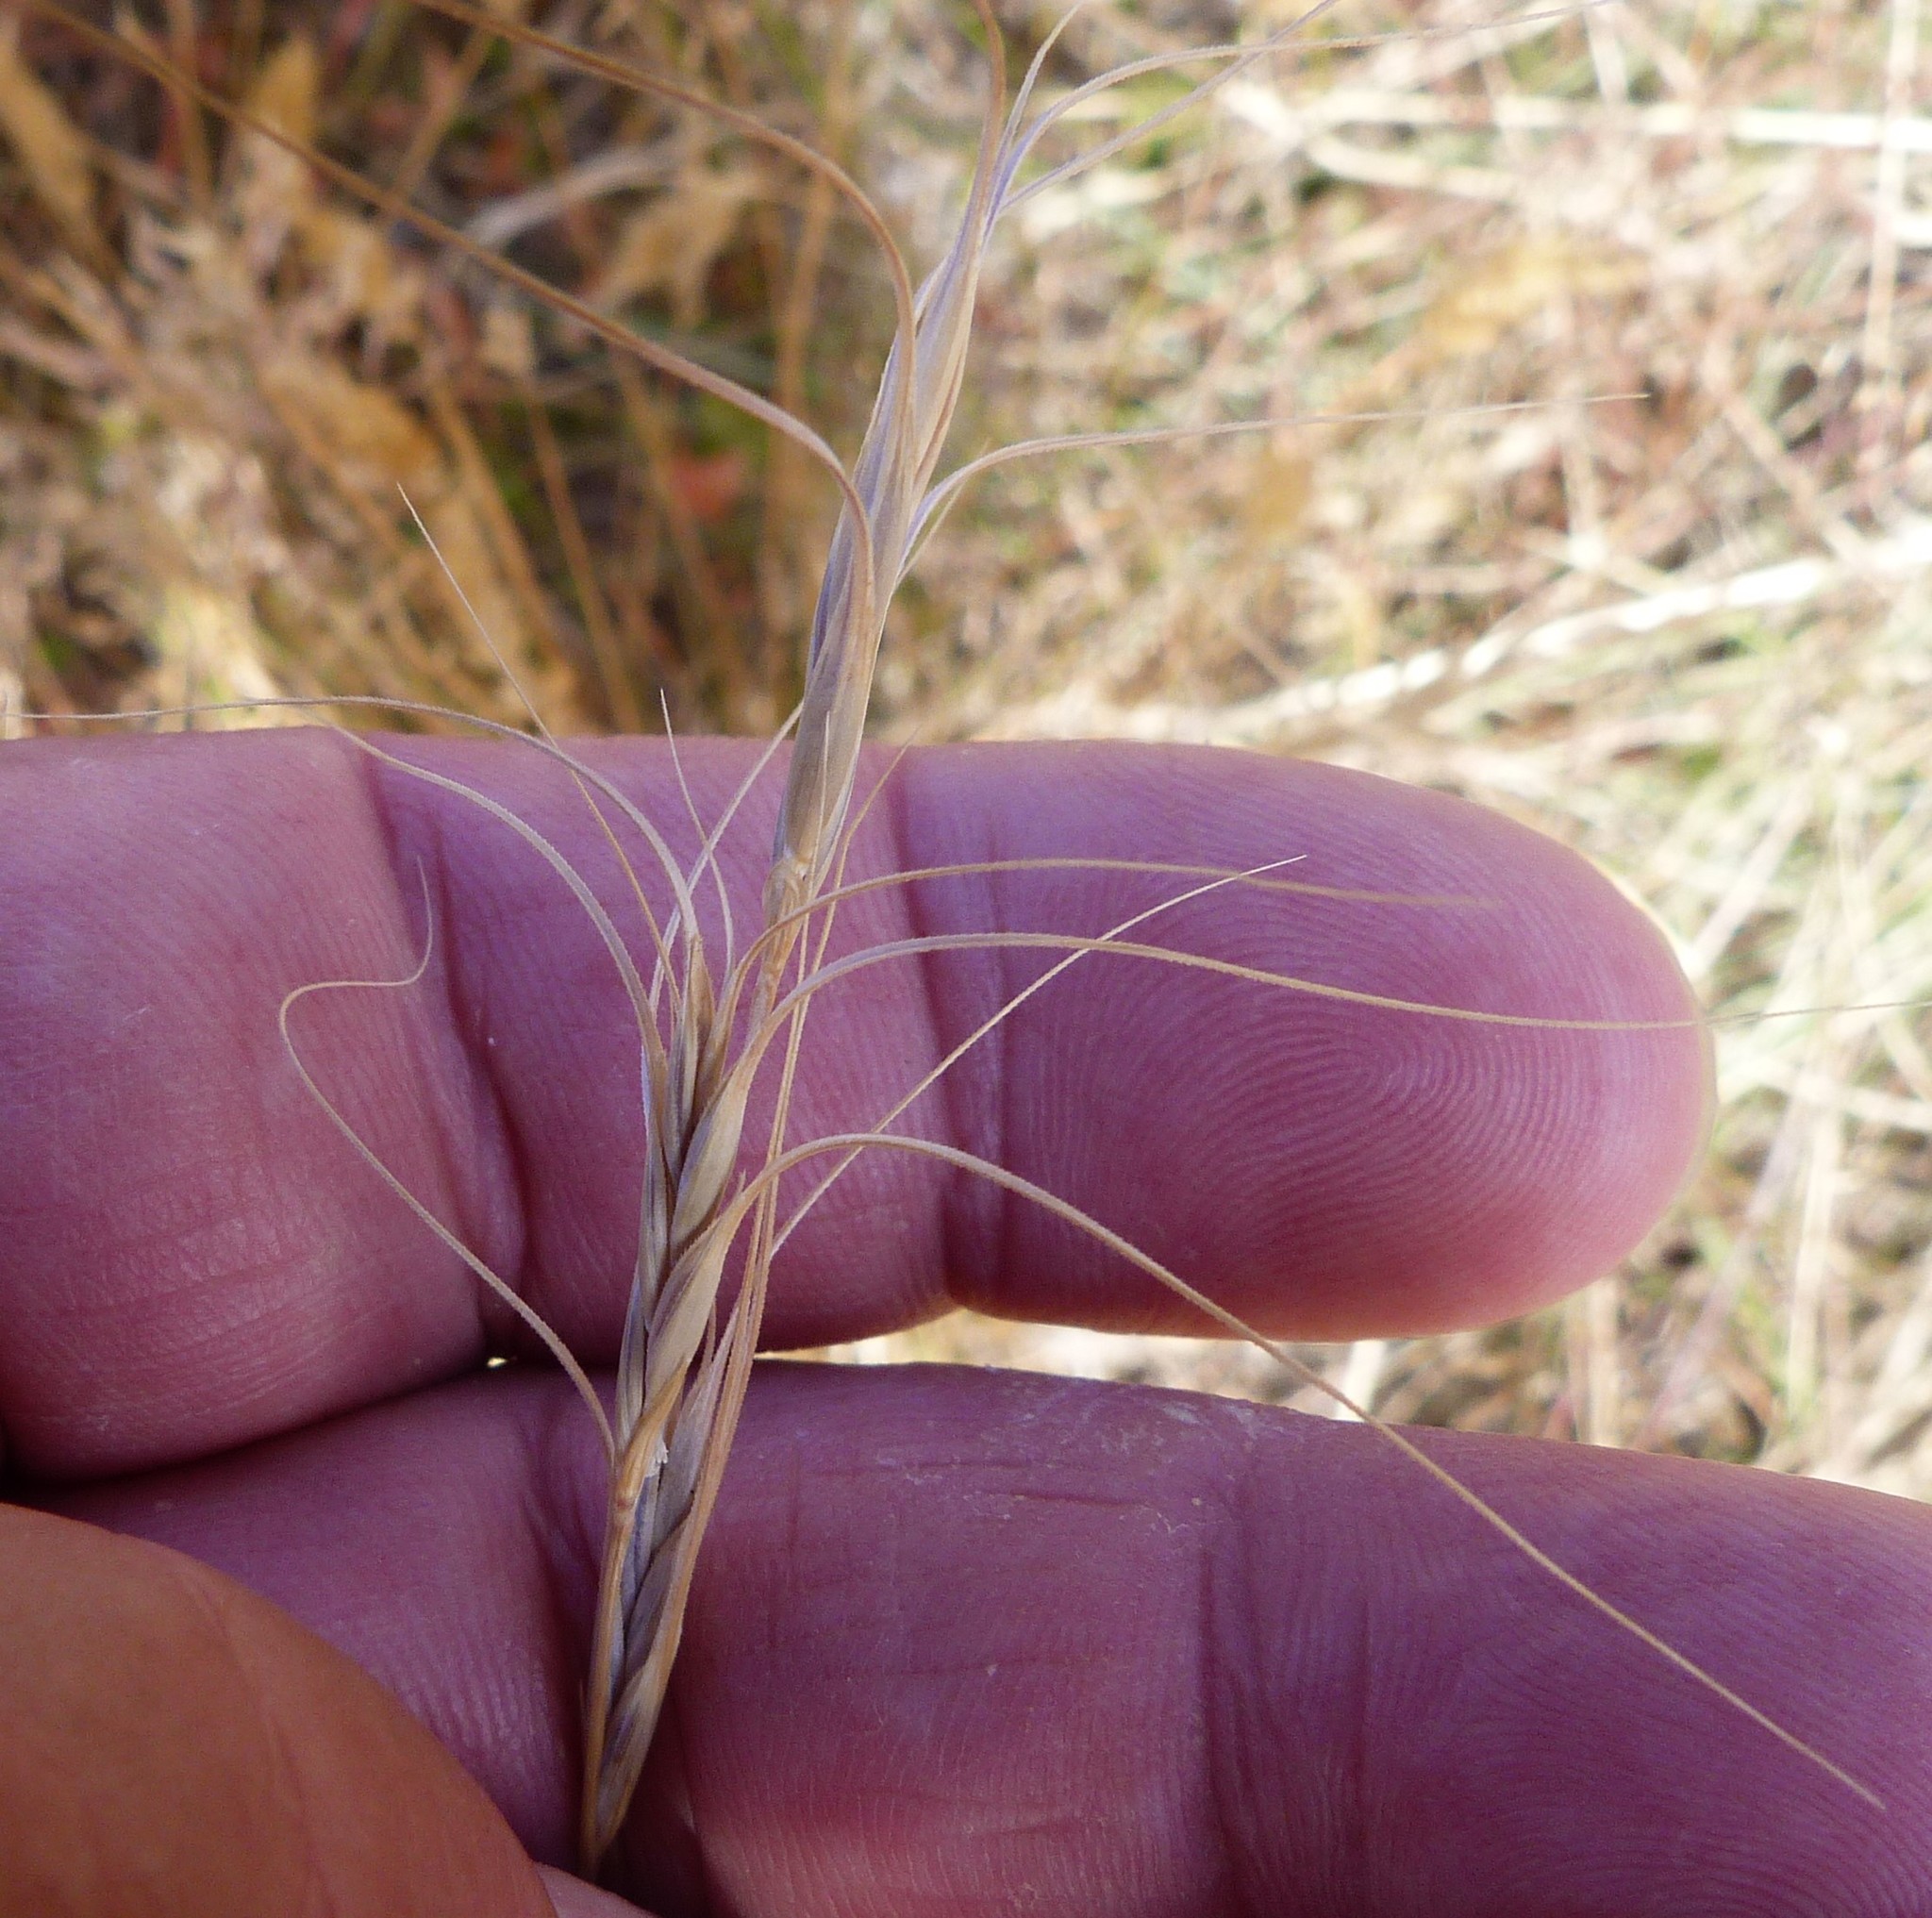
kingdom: Plantae
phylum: Tracheophyta
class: Liliopsida
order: Poales
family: Poaceae
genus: Anthosachne
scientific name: Anthosachne solandri
